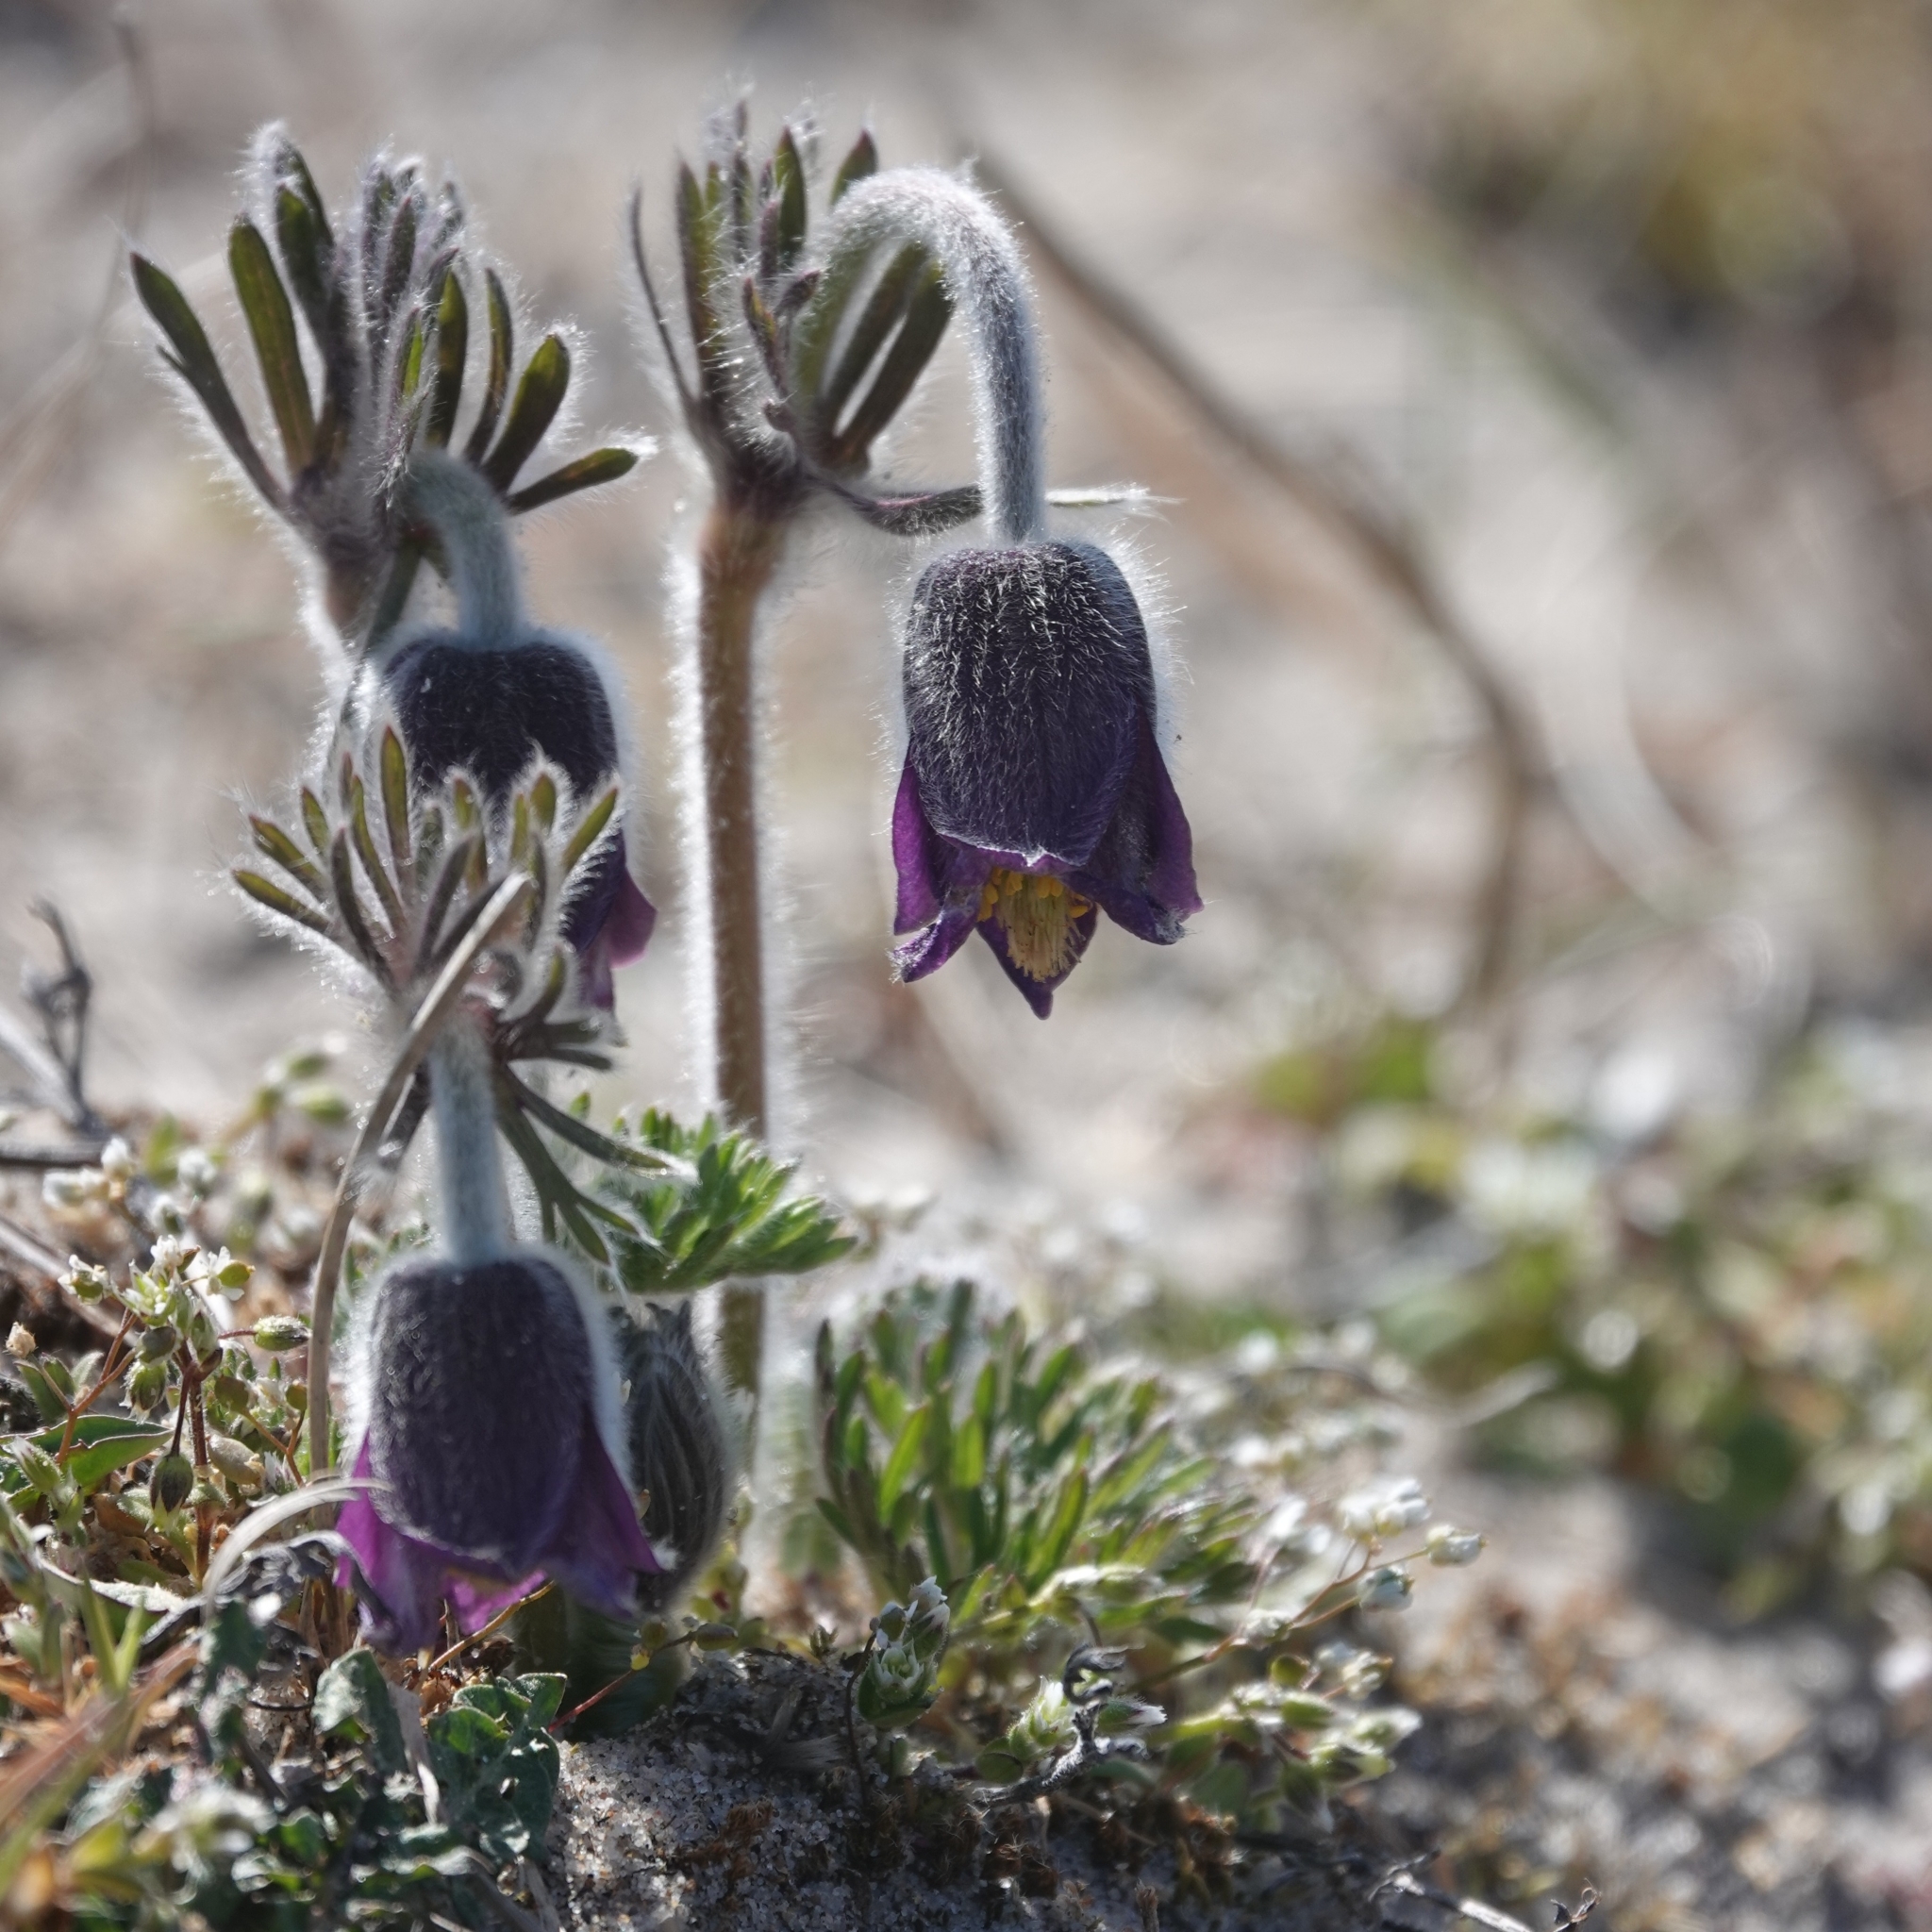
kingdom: Plantae
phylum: Tracheophyta
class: Magnoliopsida
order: Ranunculales
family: Ranunculaceae
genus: Pulsatilla
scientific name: Pulsatilla pratensis
